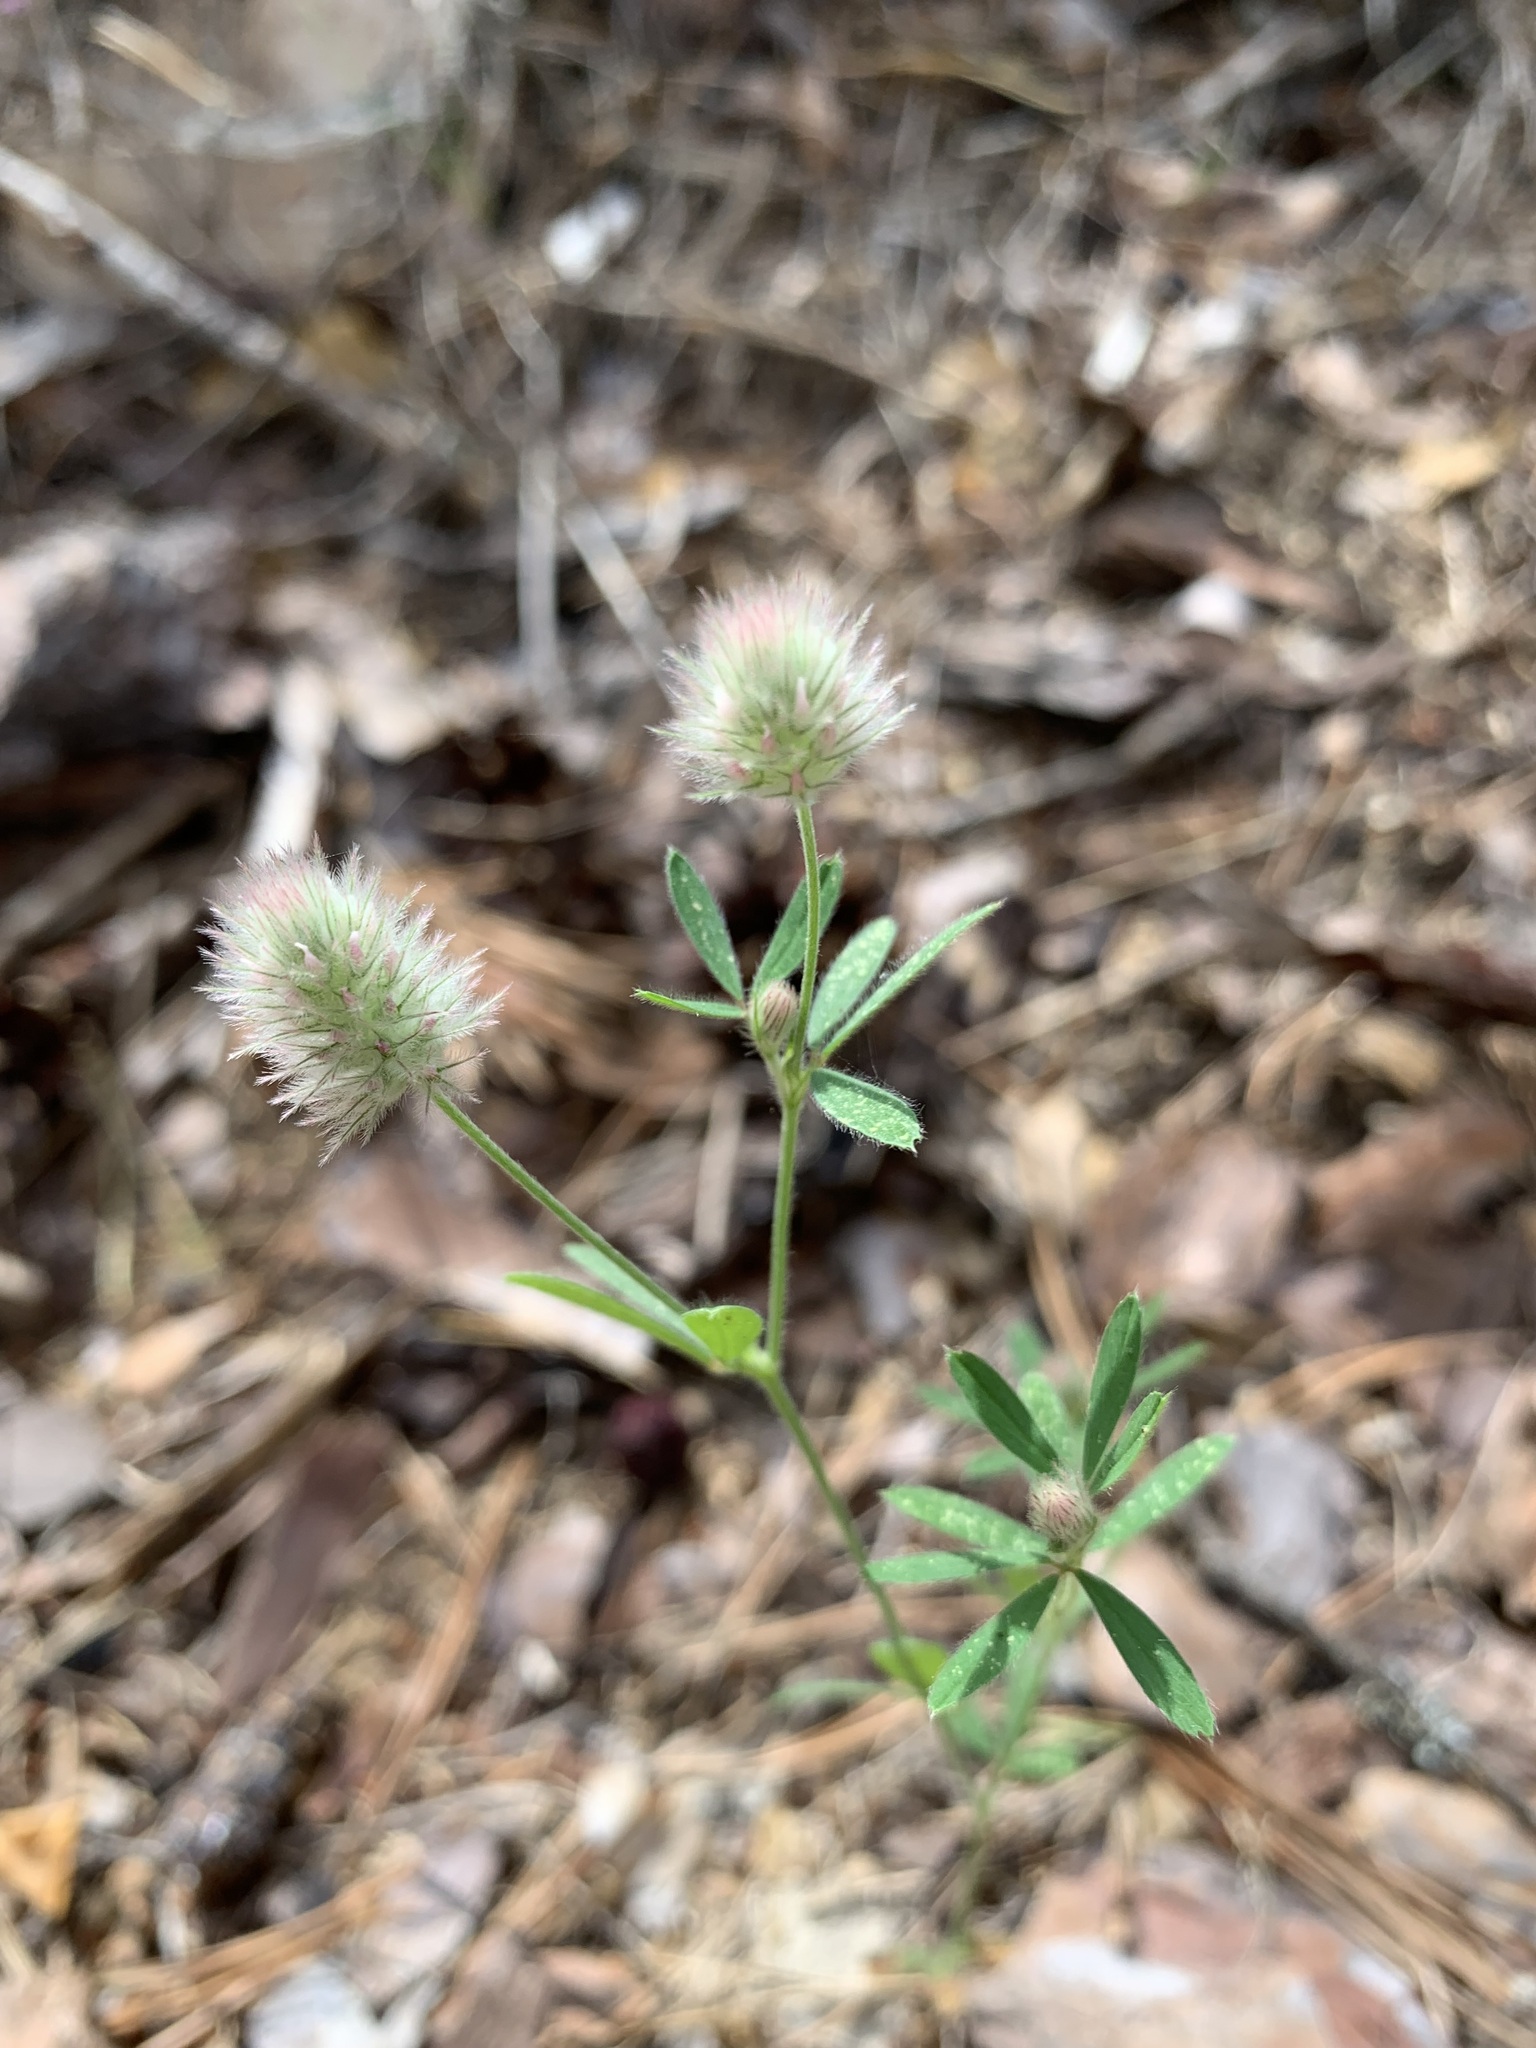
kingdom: Plantae
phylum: Tracheophyta
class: Magnoliopsida
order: Fabales
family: Fabaceae
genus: Trifolium
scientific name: Trifolium arvense
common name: Hare's-foot clover
